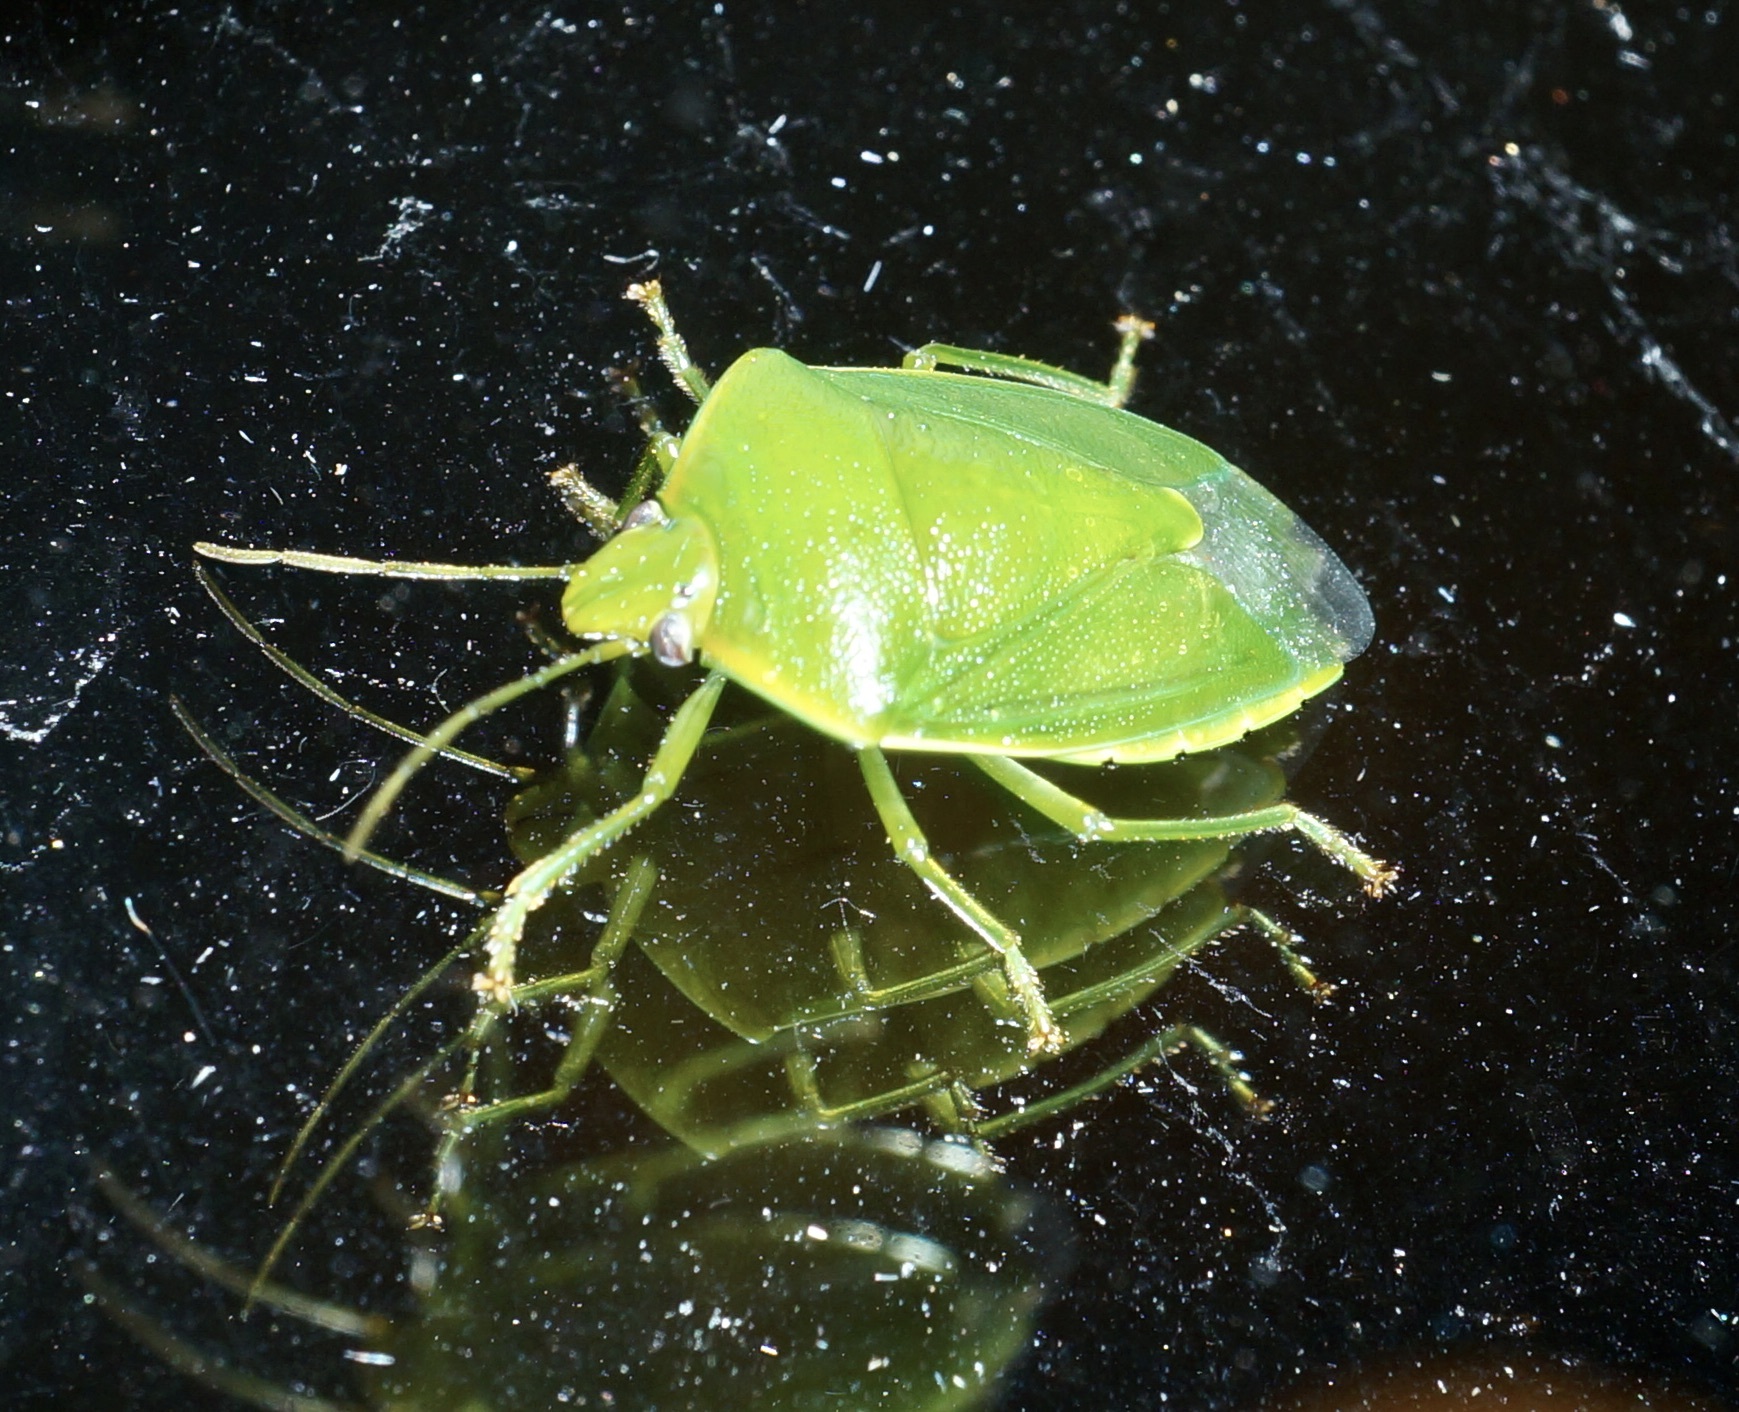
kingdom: Animalia
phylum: Arthropoda
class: Insecta
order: Hemiptera
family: Pentatomidae
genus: Glaucias
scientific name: Glaucias amyota
